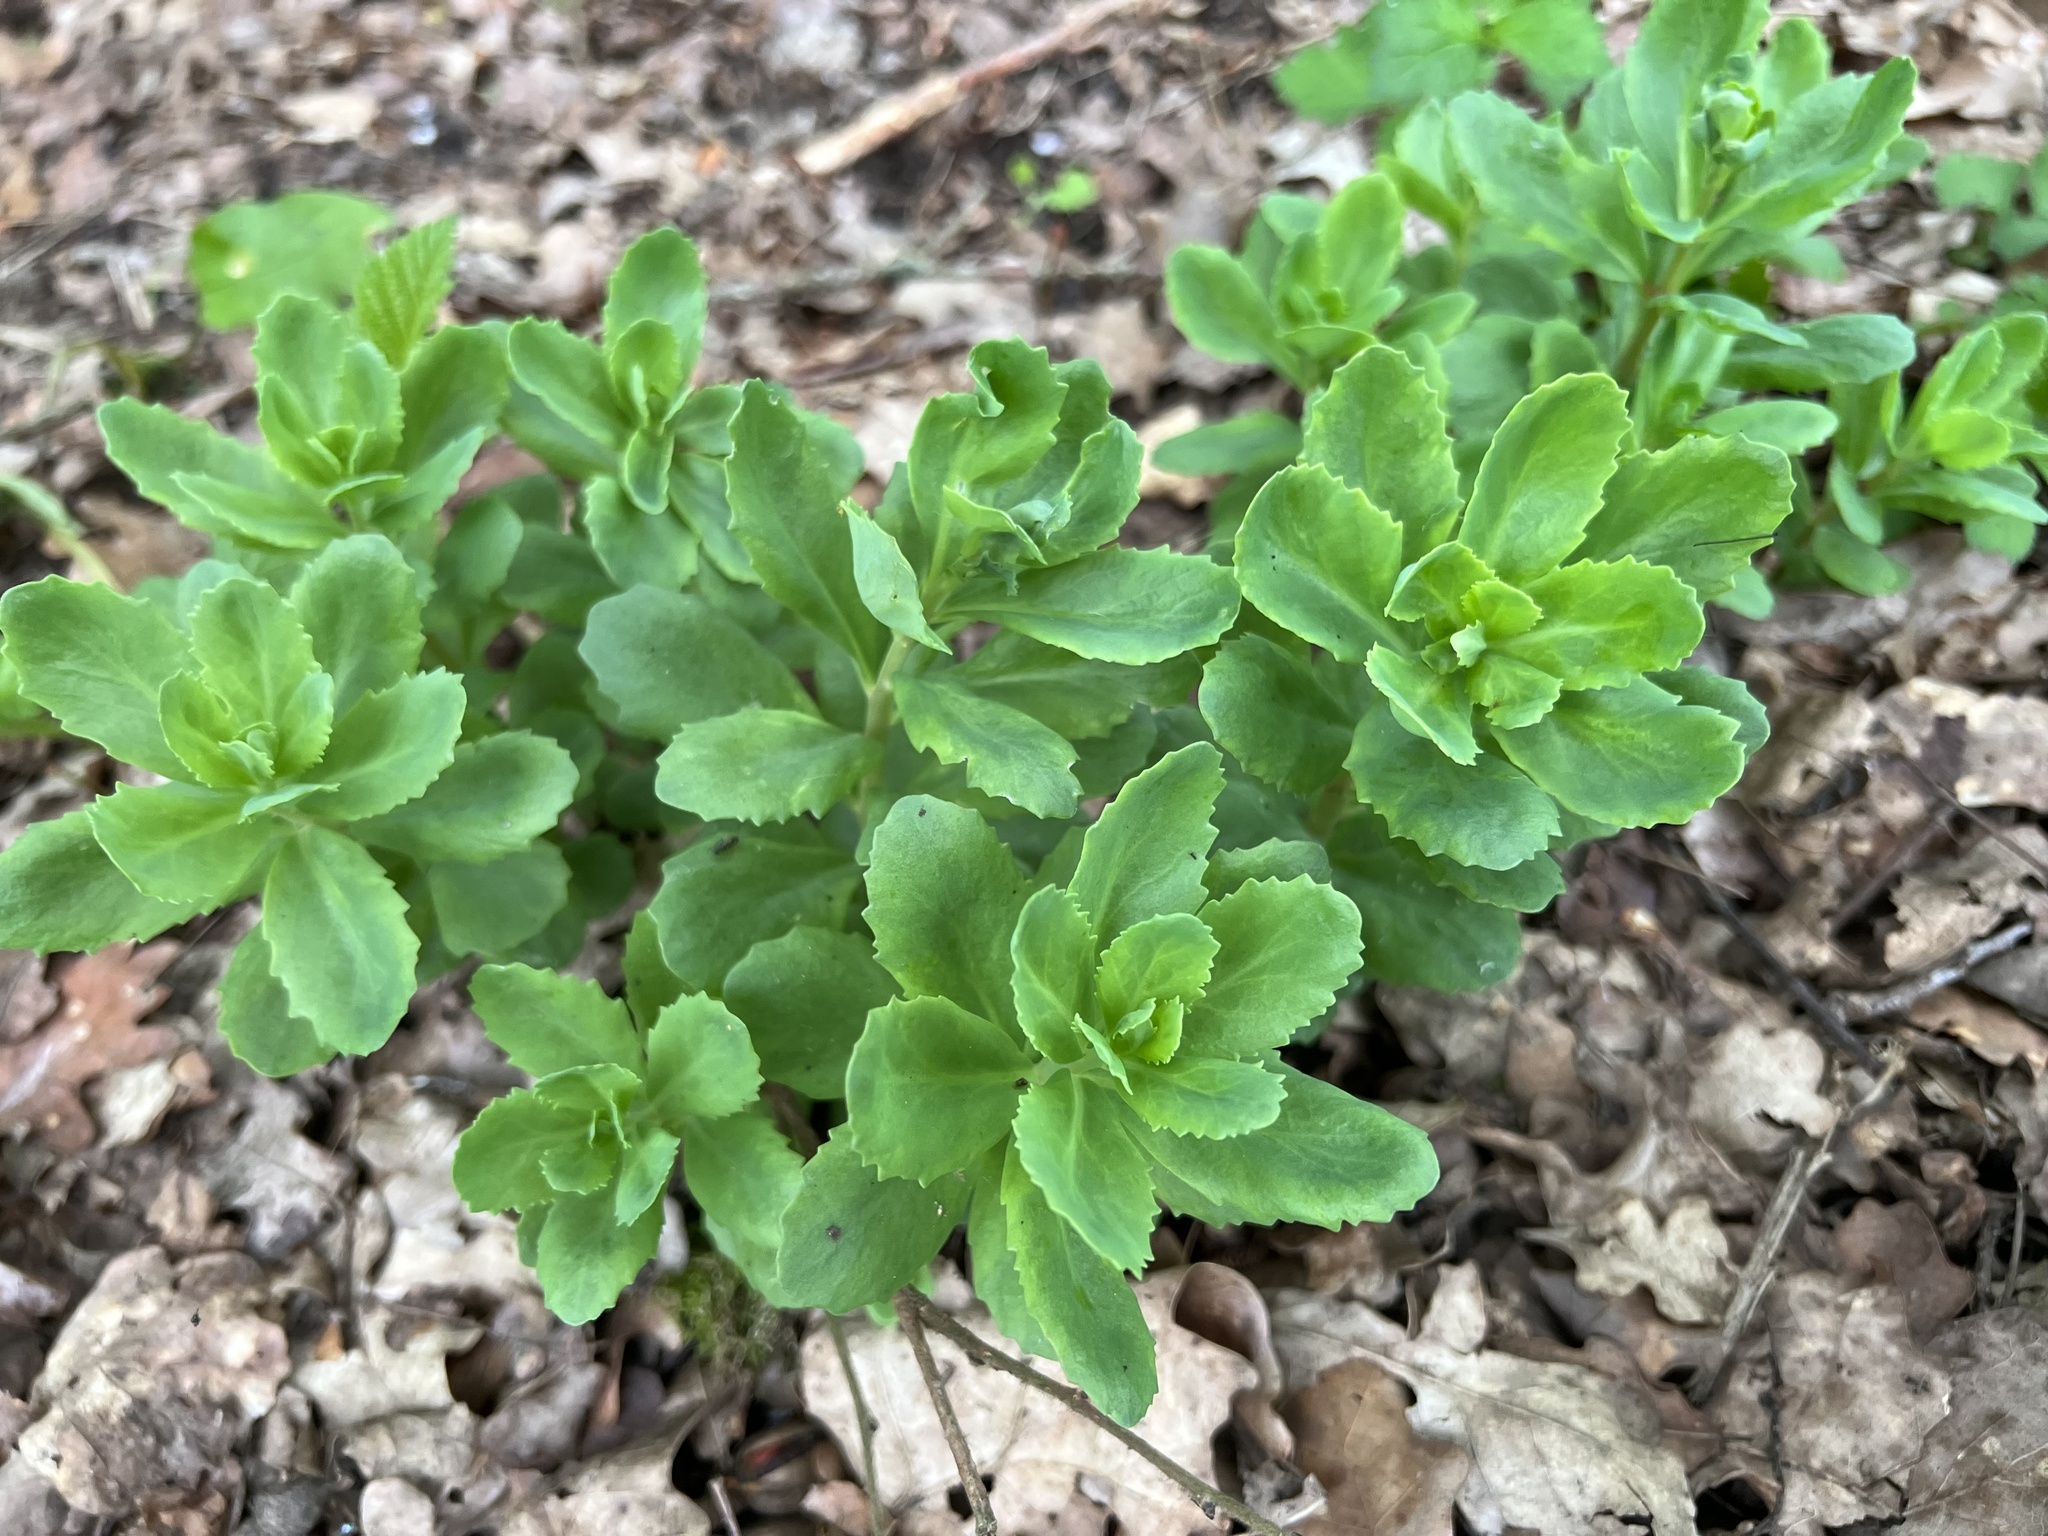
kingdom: Plantae
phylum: Tracheophyta
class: Magnoliopsida
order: Saxifragales
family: Crassulaceae
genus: Hylotelephium
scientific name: Hylotelephium telephium
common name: Live-forever
